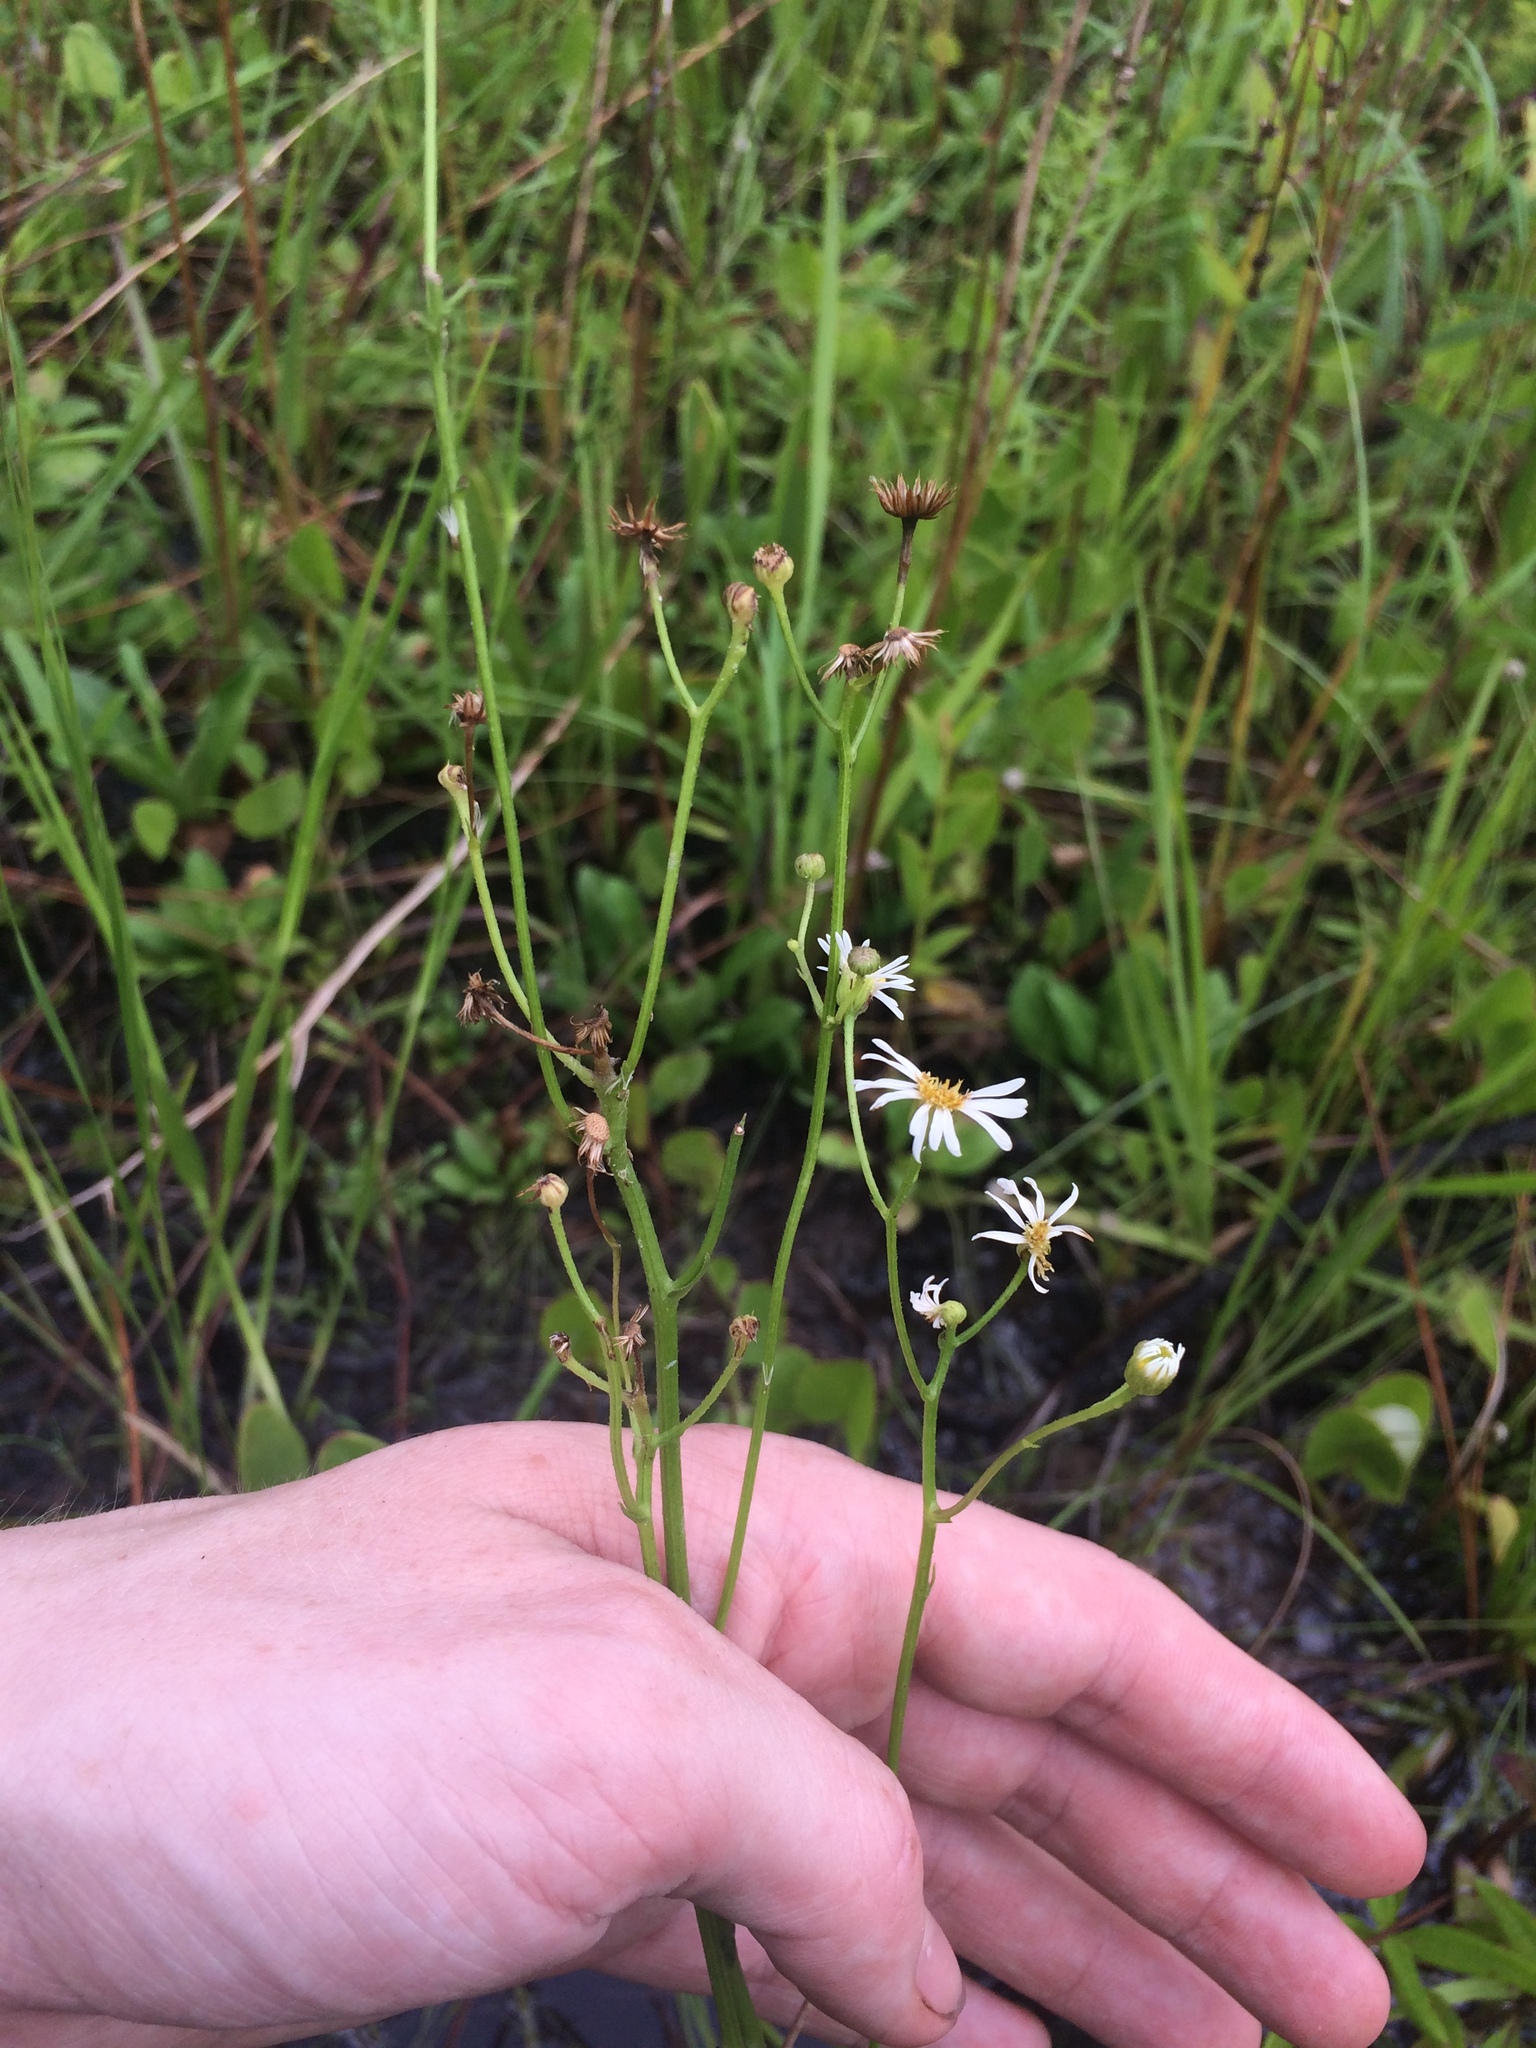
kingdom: Plantae
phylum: Tracheophyta
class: Magnoliopsida
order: Asterales
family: Asteraceae
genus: Erigeron
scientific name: Erigeron vernus
